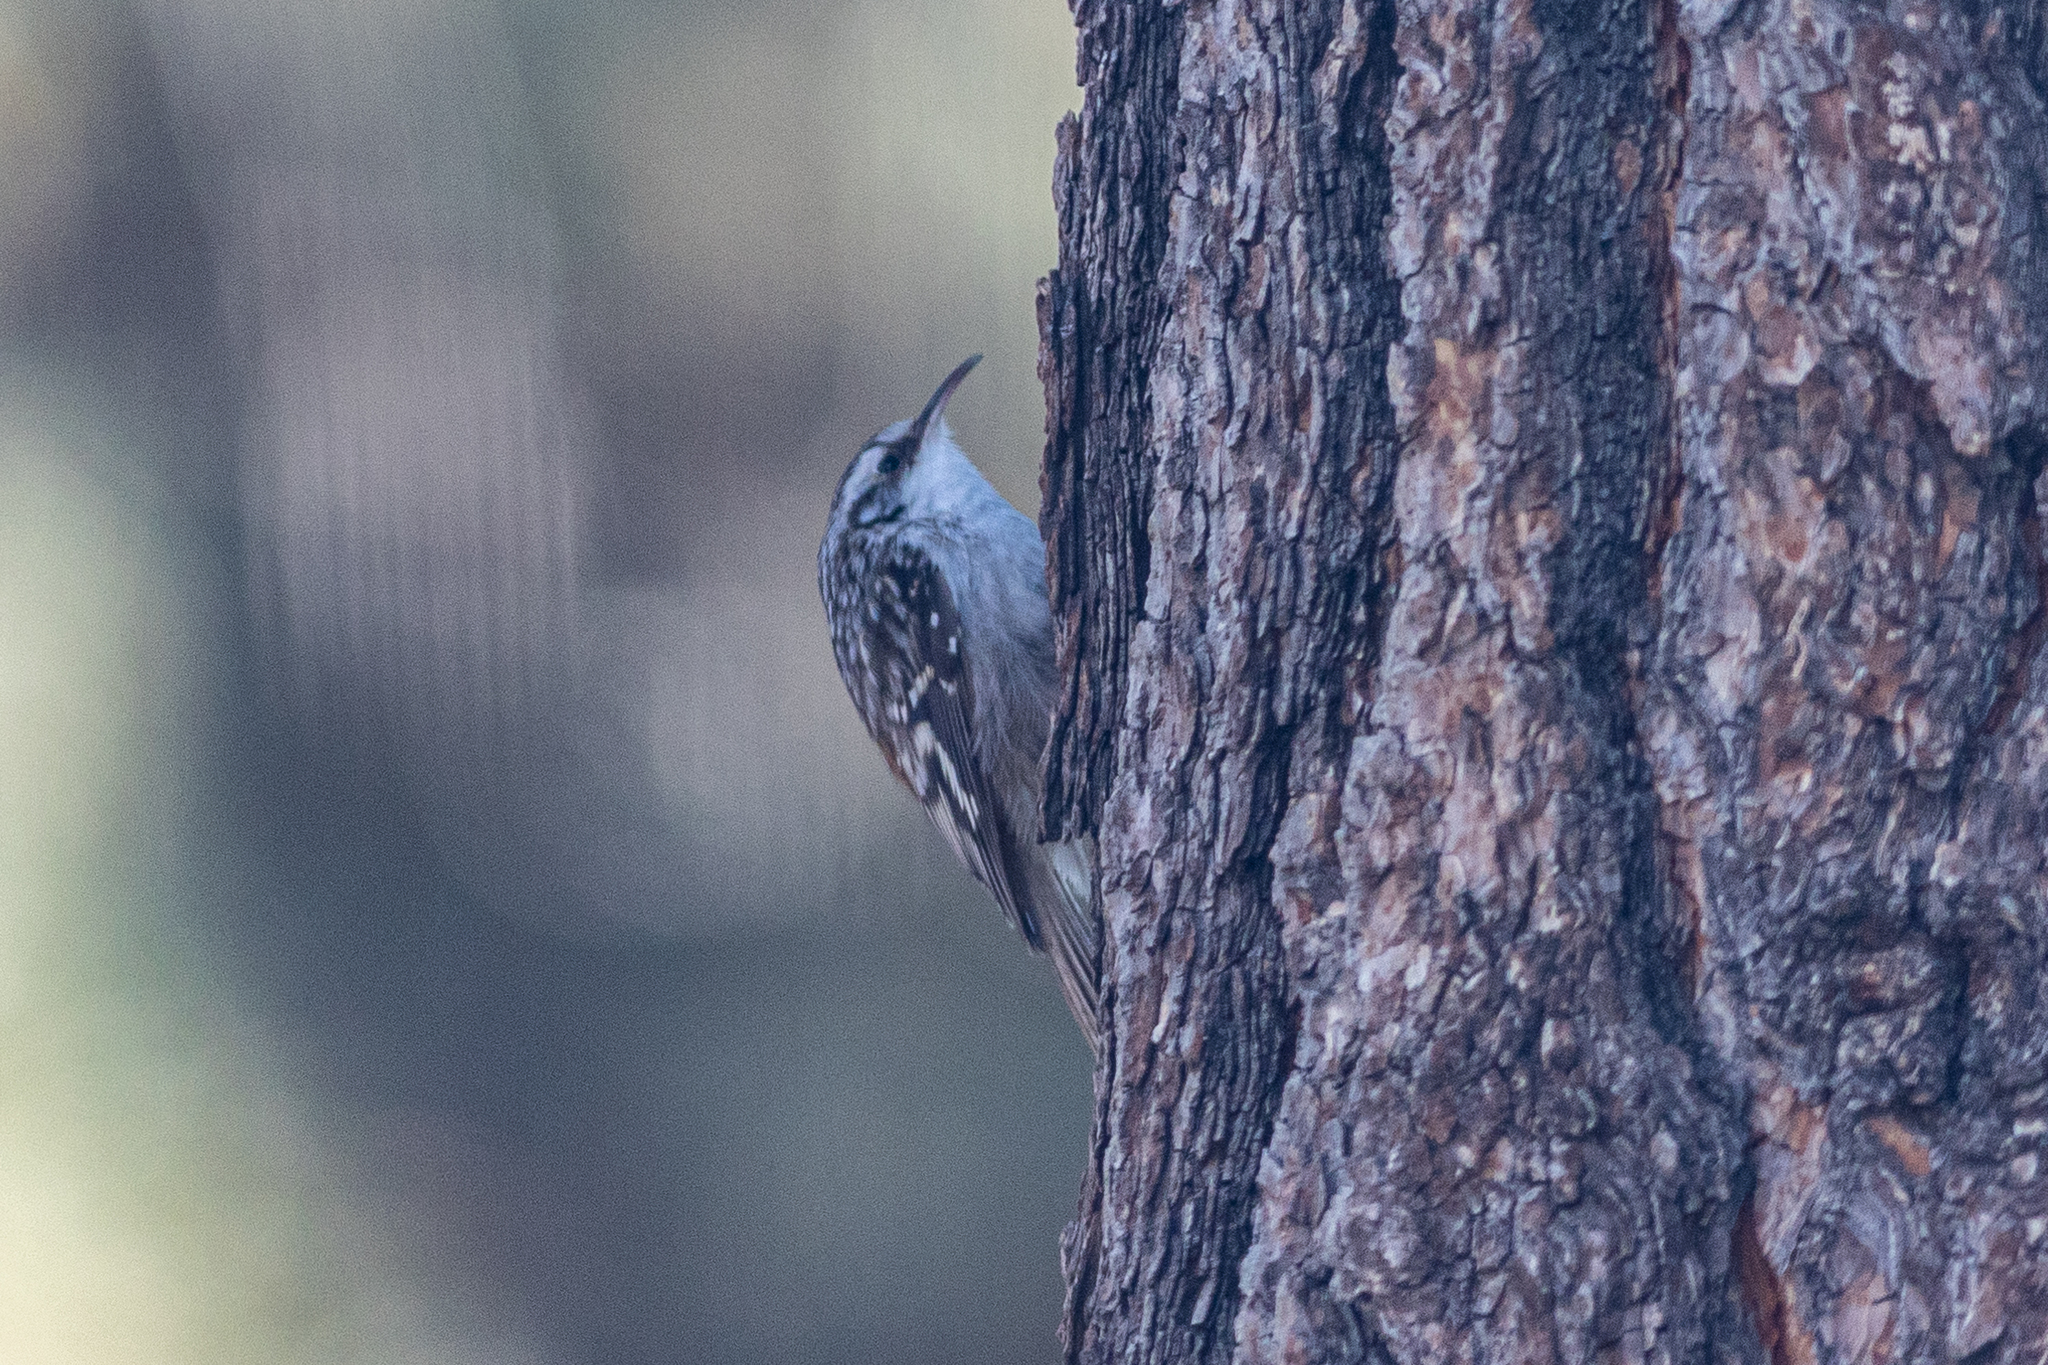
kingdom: Animalia
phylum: Chordata
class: Aves
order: Passeriformes
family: Certhiidae
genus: Certhia
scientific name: Certhia americana
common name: Brown creeper
